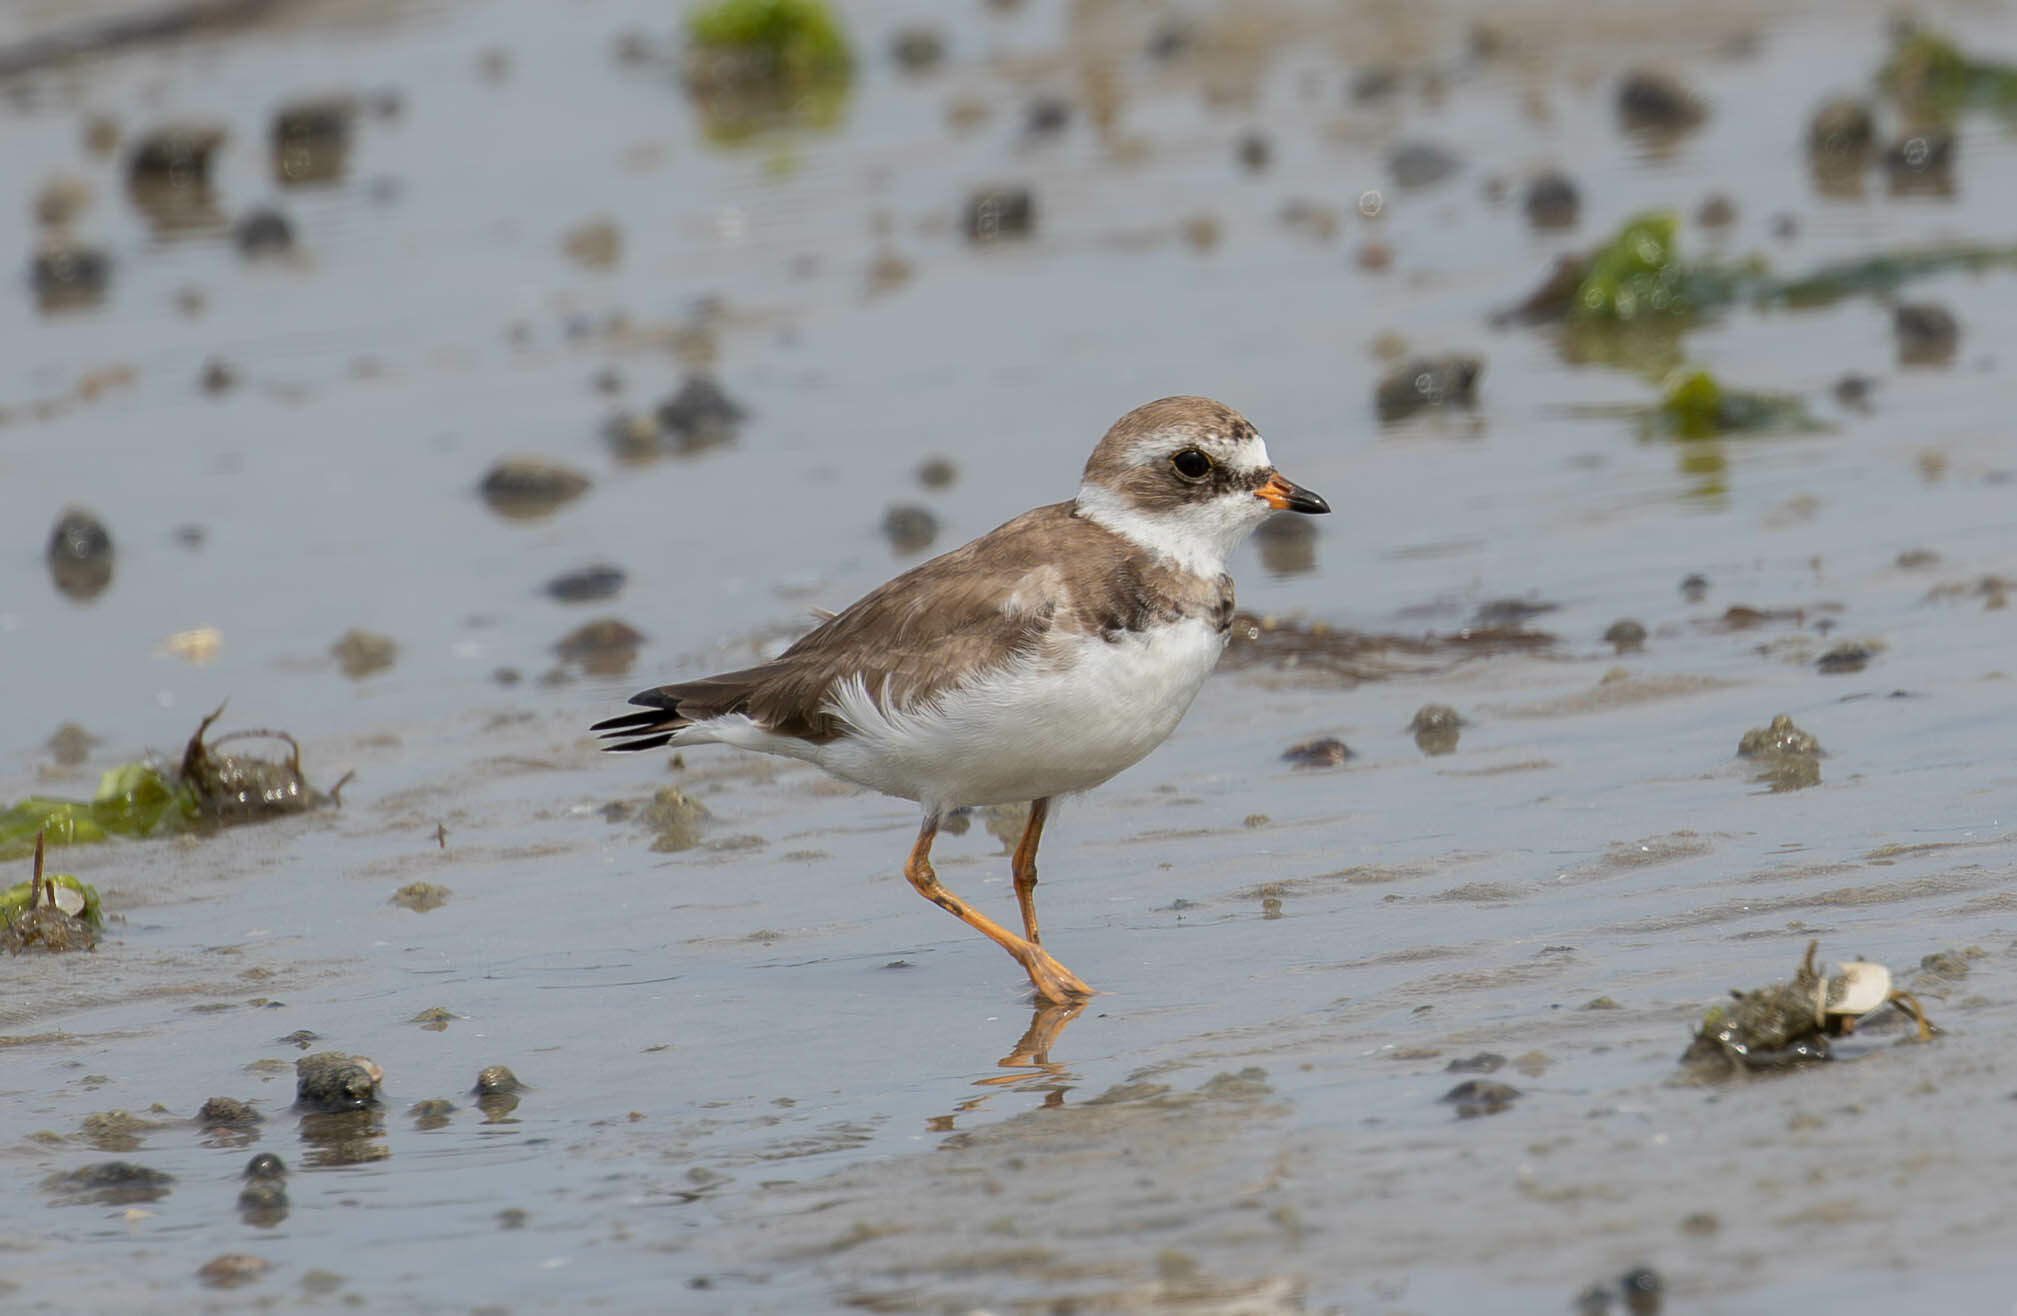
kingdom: Animalia
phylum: Chordata
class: Aves
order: Charadriiformes
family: Charadriidae
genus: Charadrius
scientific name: Charadrius semipalmatus
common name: Semipalmated plover
